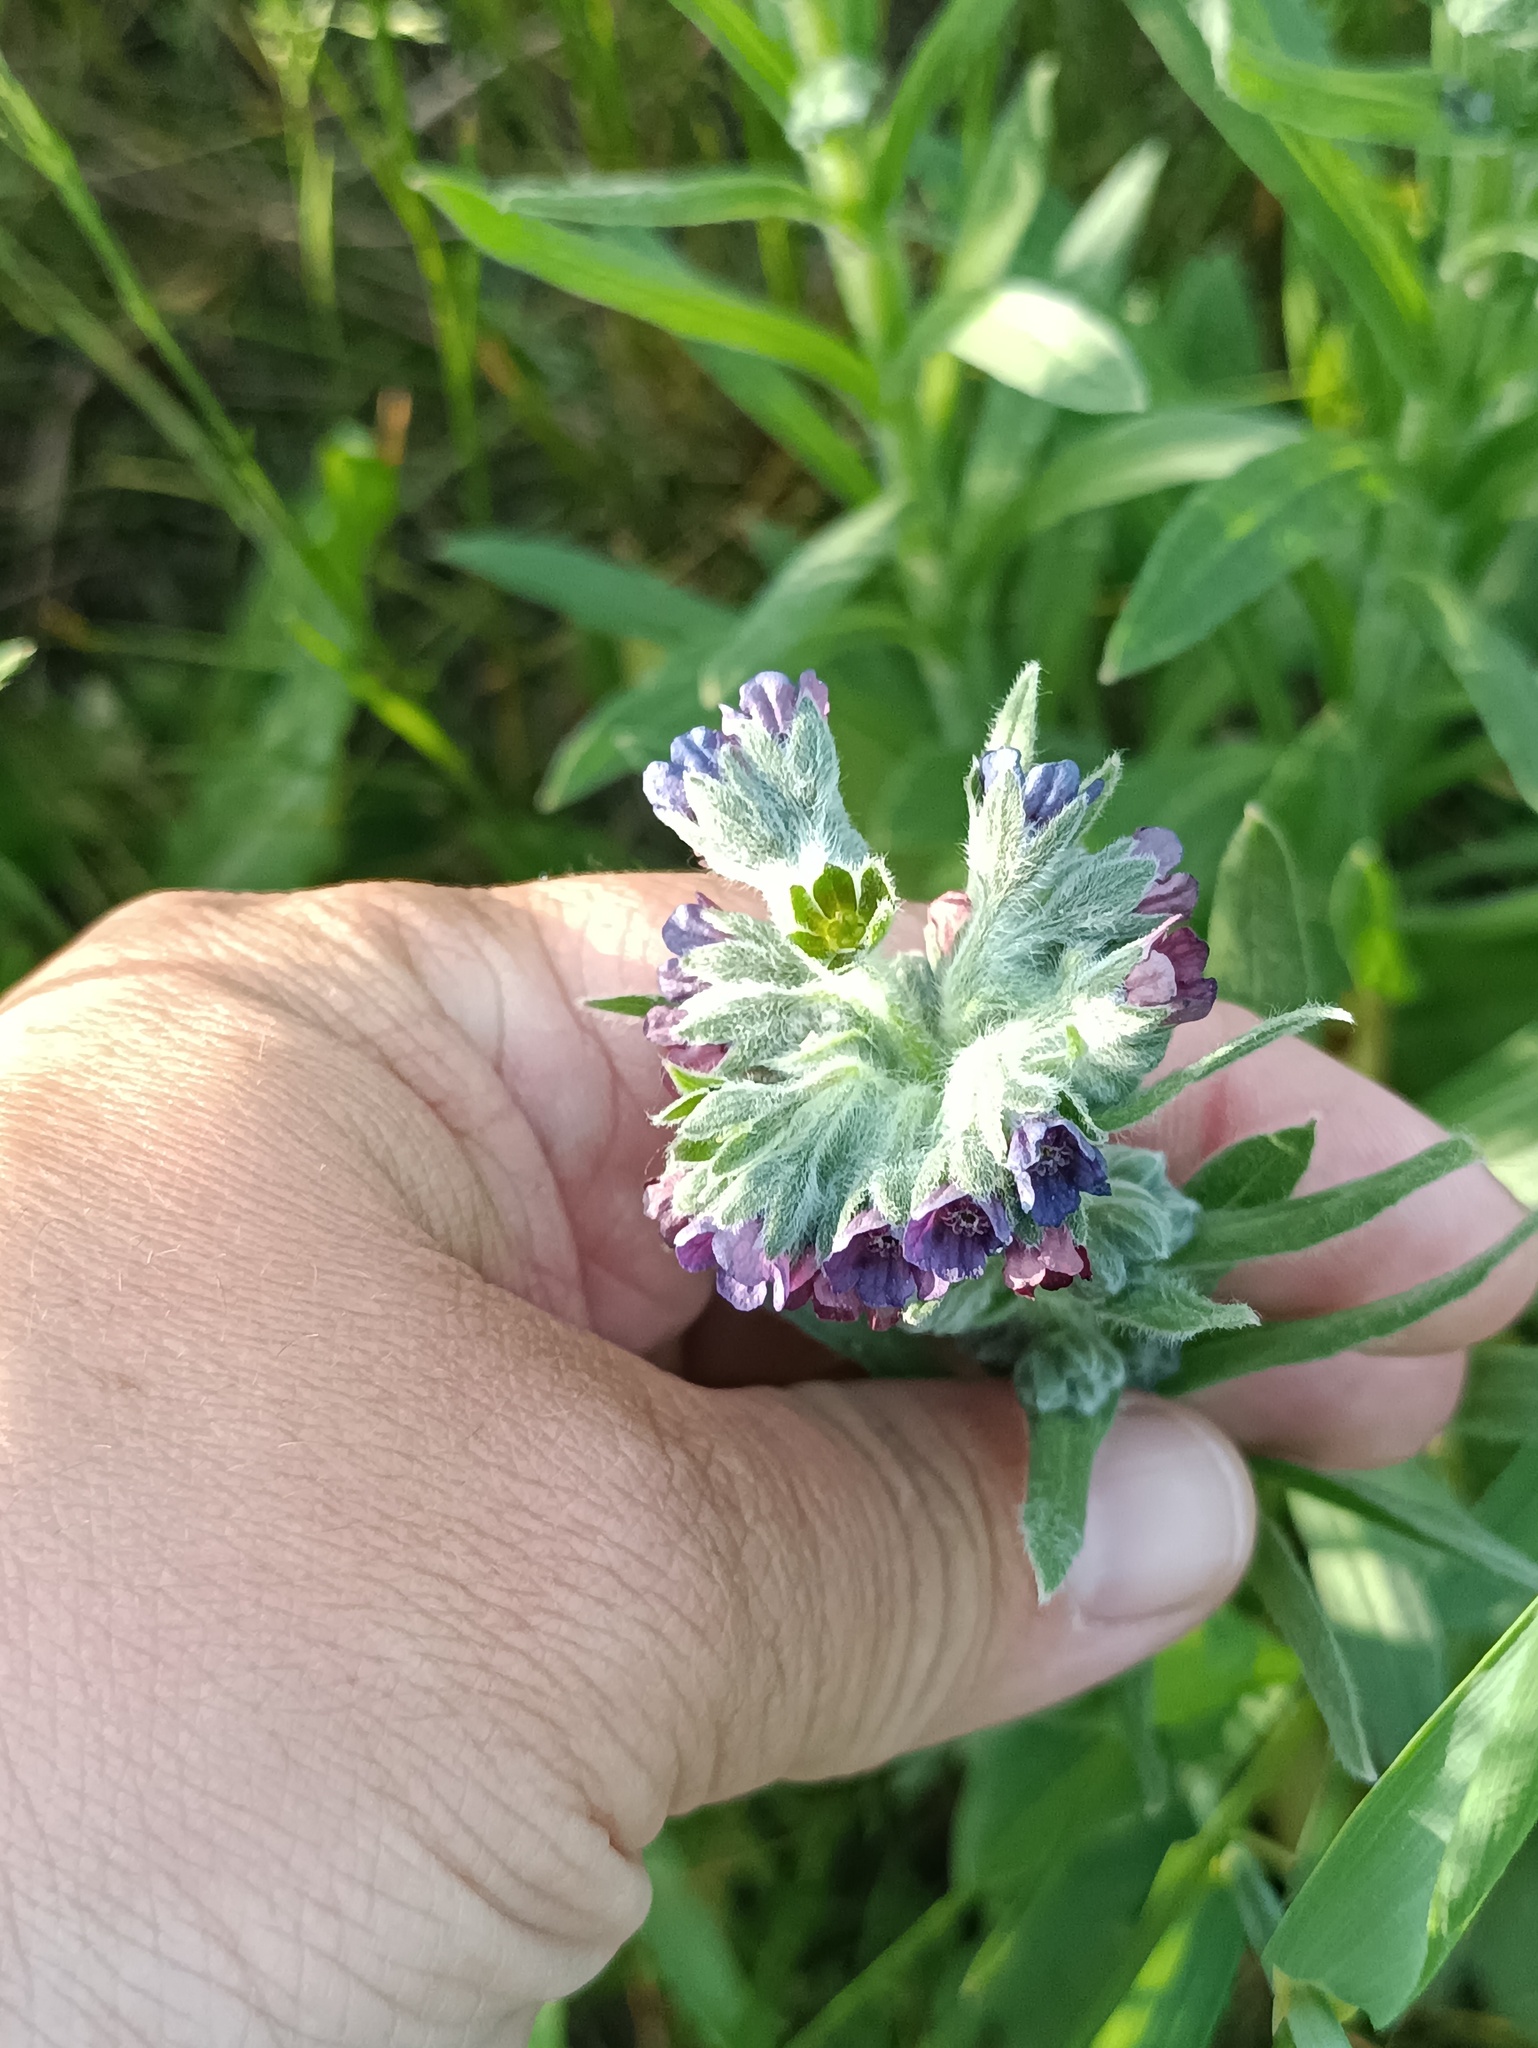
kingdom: Plantae
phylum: Tracheophyta
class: Magnoliopsida
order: Boraginales
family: Boraginaceae
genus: Cynoglossum
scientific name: Cynoglossum officinale
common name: Hound's-tongue
